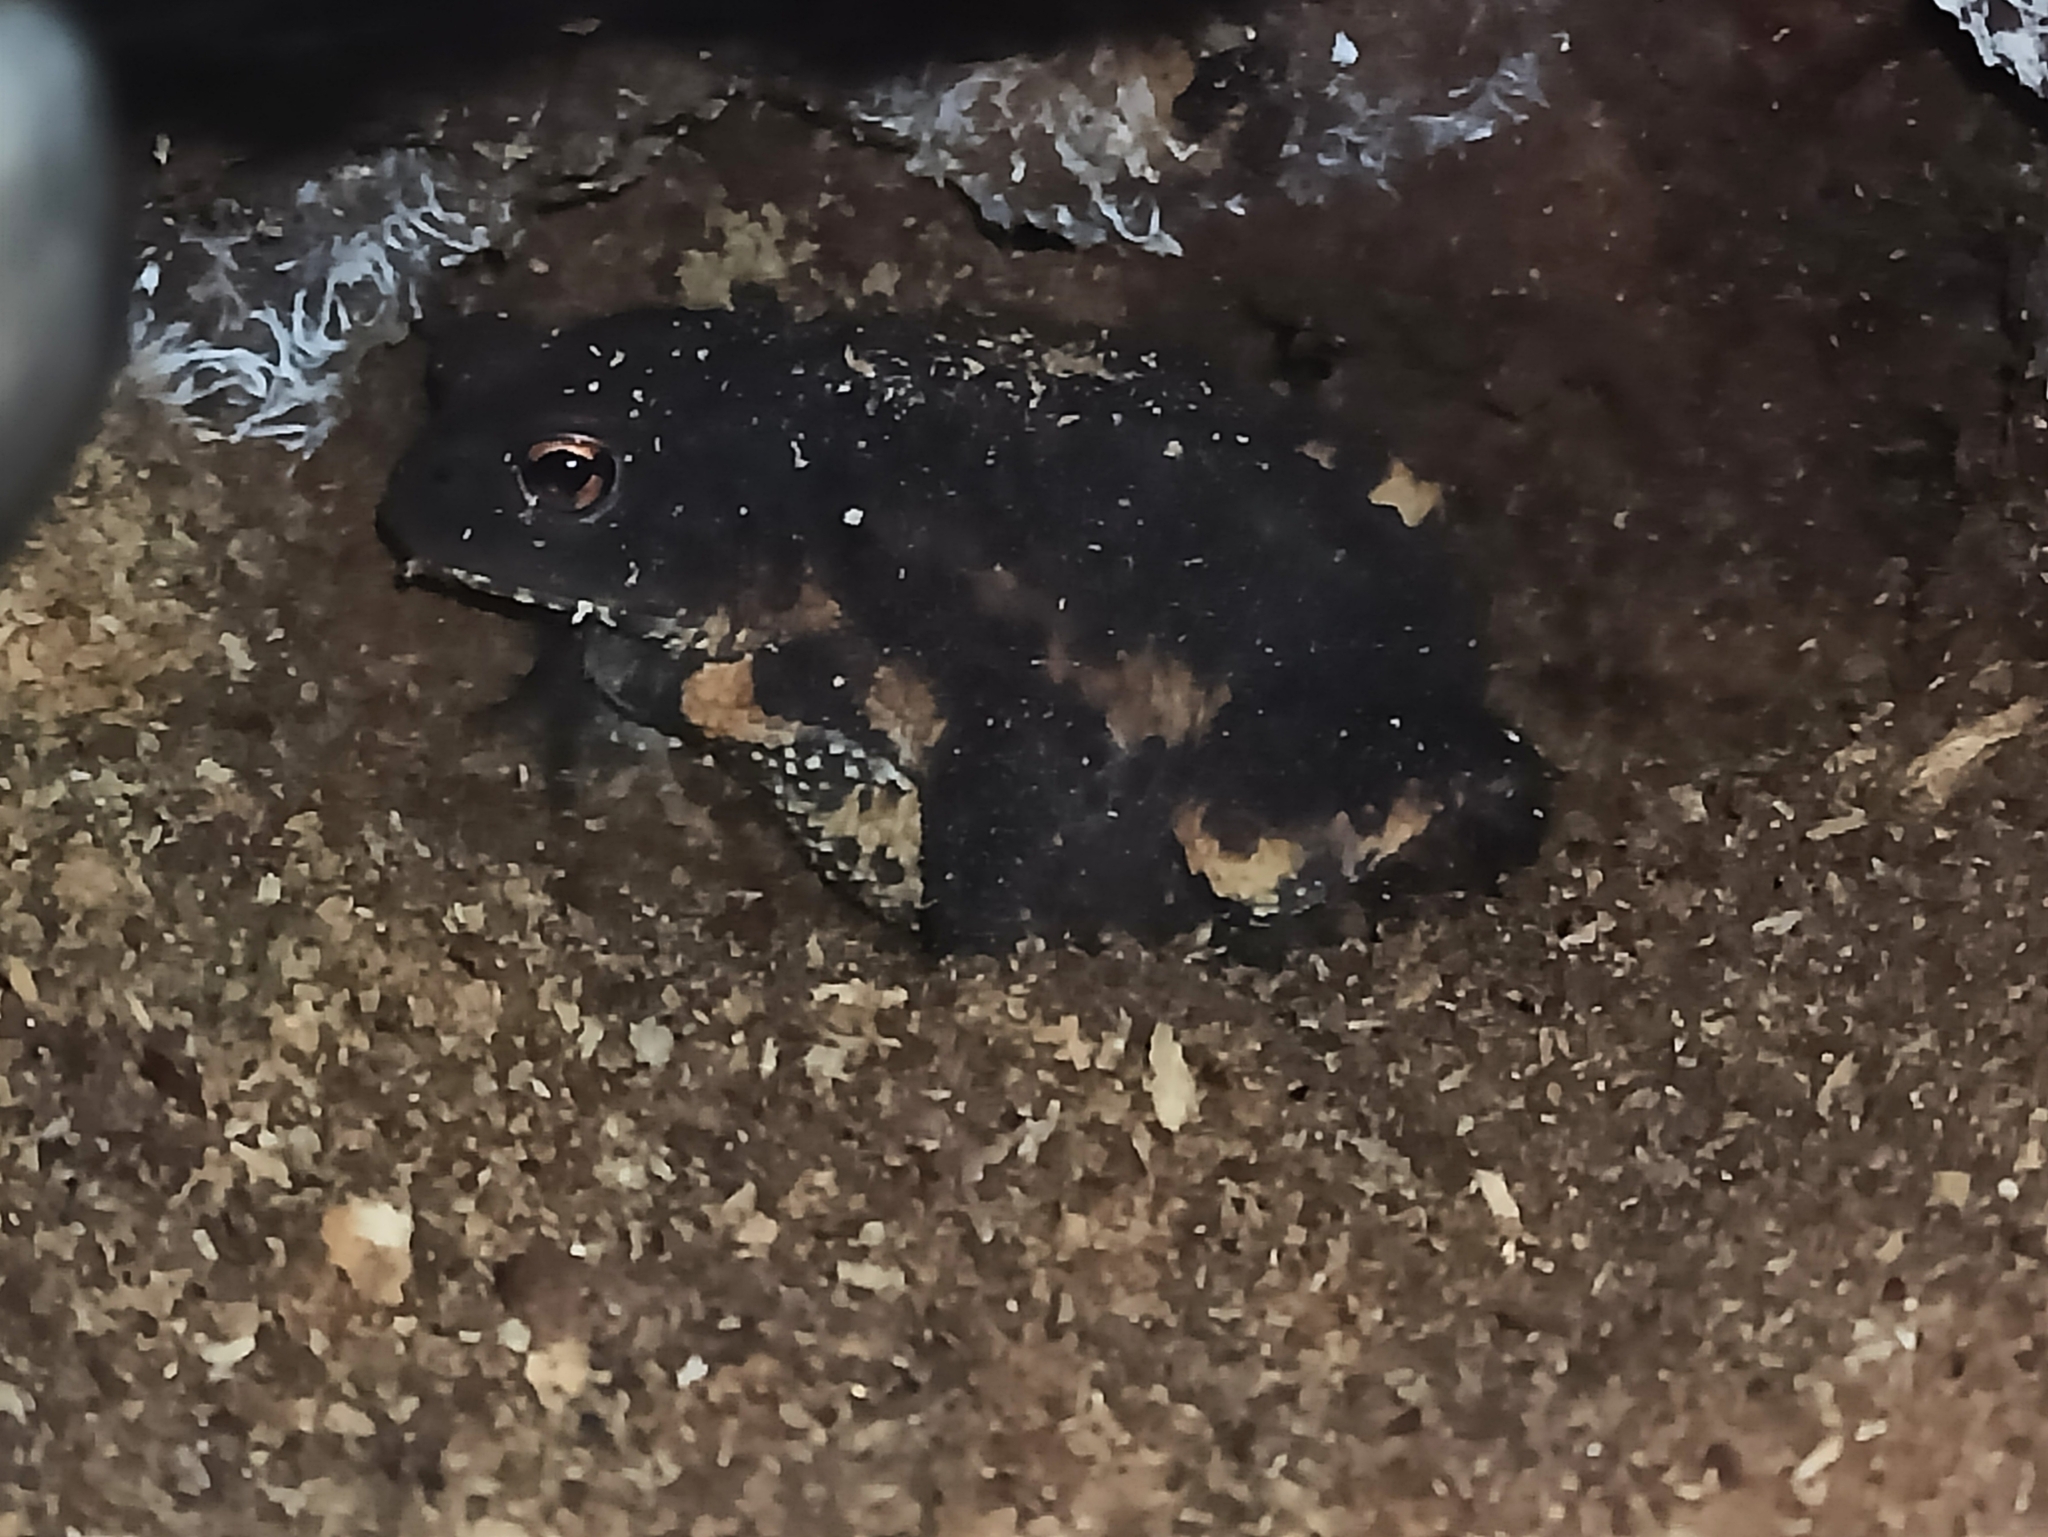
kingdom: Animalia
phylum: Chordata
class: Amphibia
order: Anura
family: Bufonidae
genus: Bufo
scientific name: Bufo bufo
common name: Common toad
